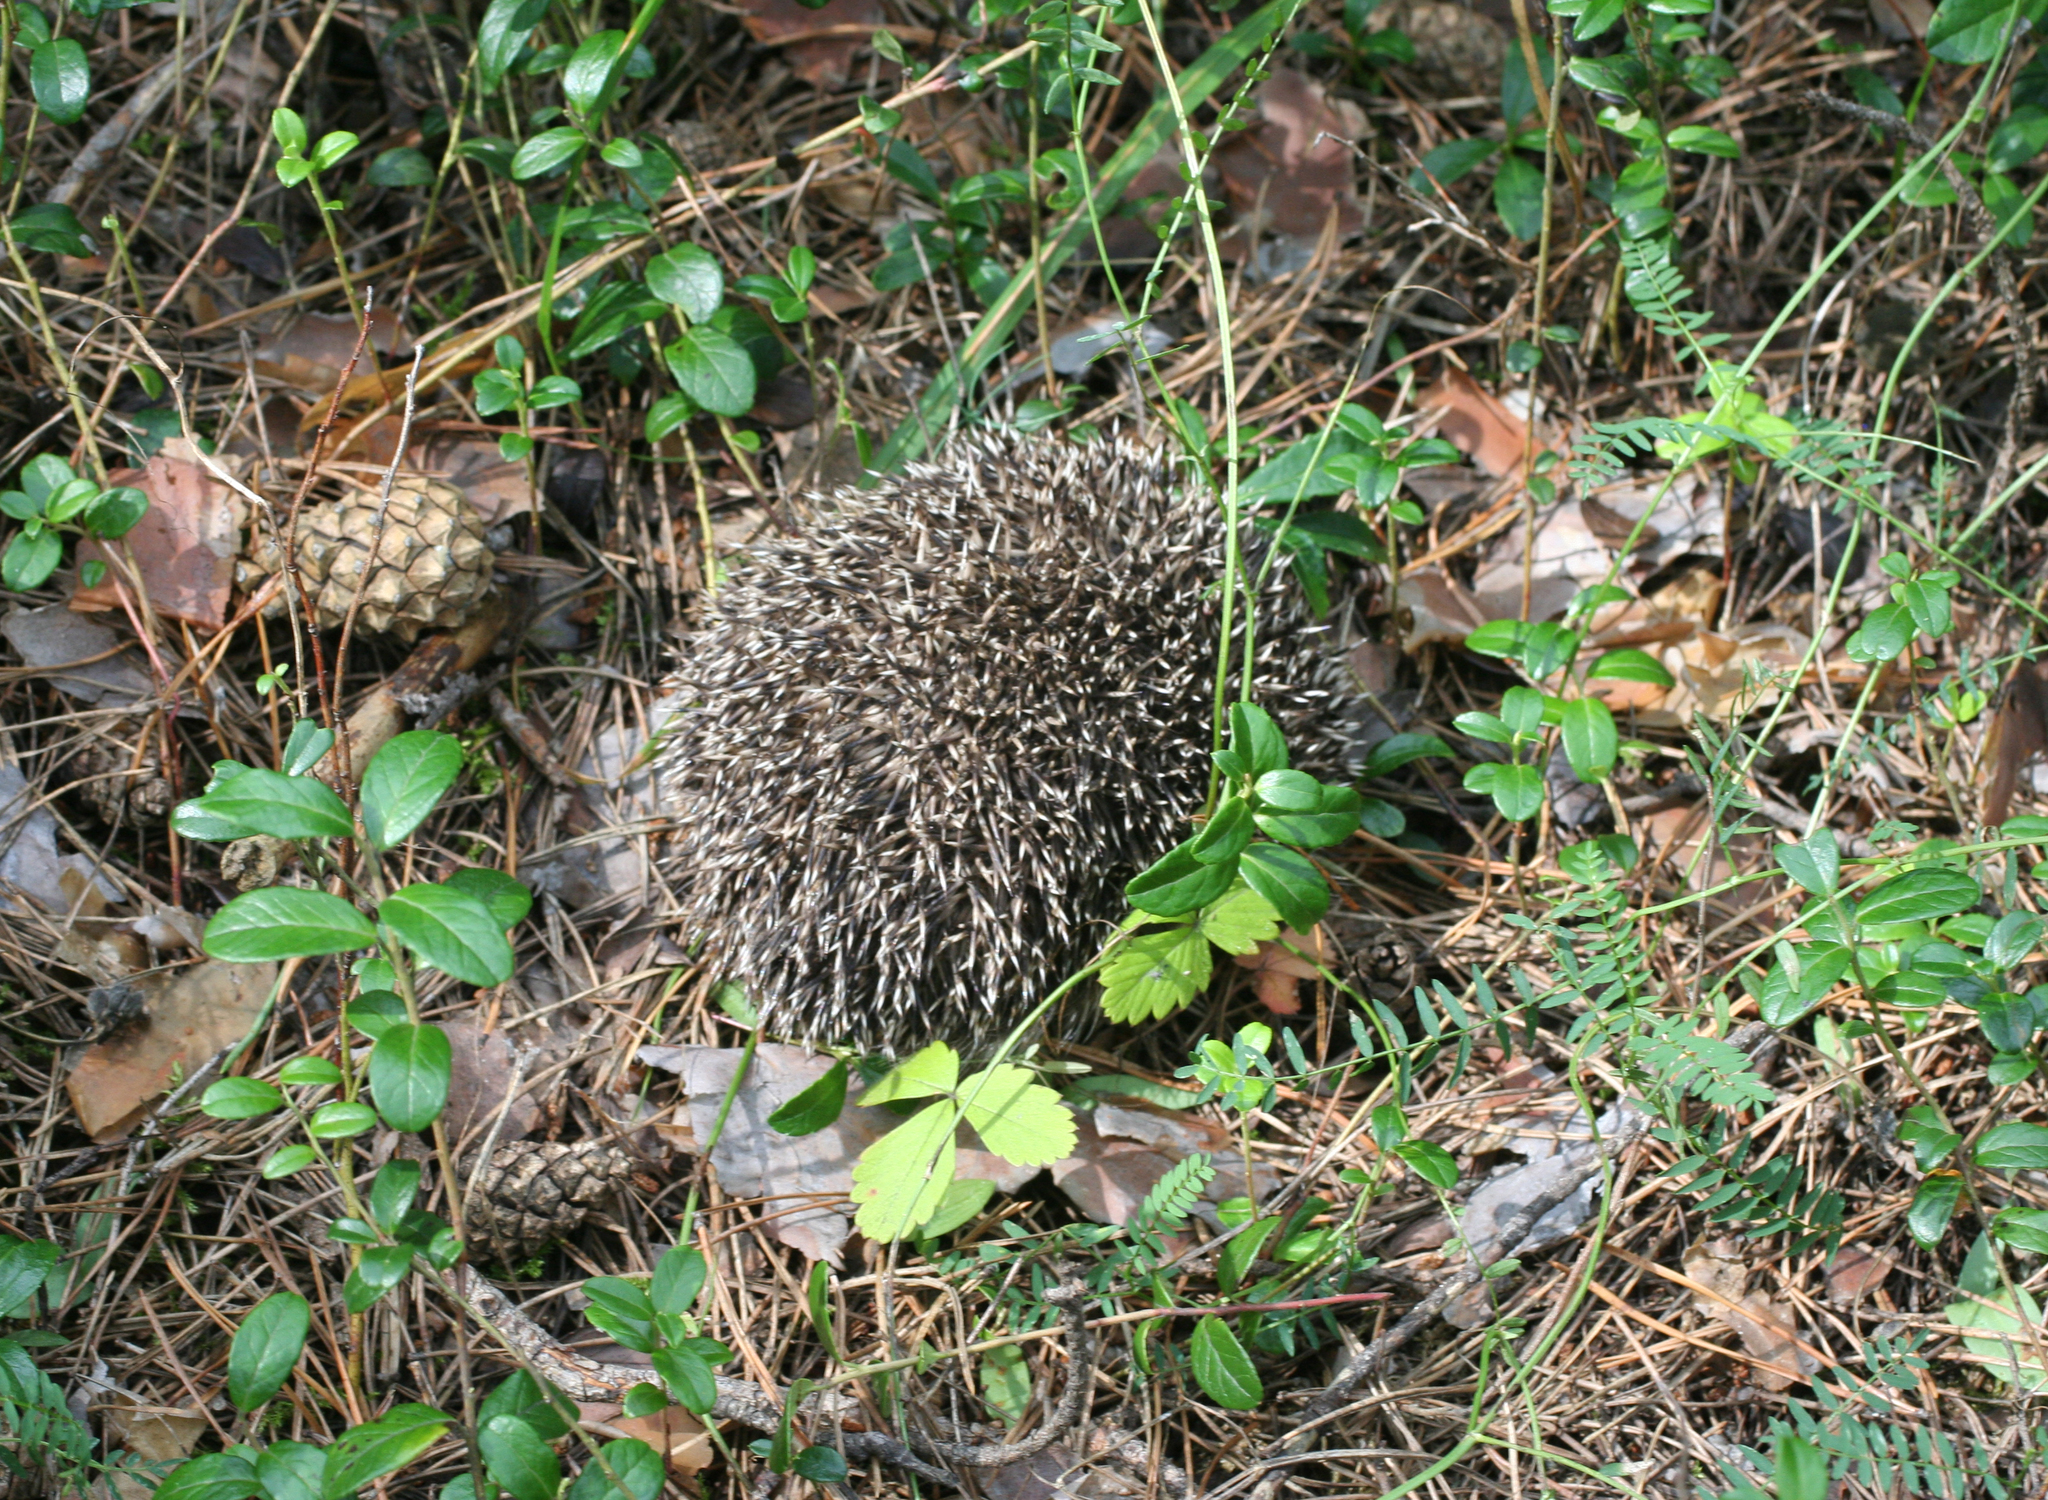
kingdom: Animalia
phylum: Chordata
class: Mammalia
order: Erinaceomorpha
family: Erinaceidae
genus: Erinaceus
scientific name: Erinaceus roumanicus
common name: Northern white-breasted hedgehog
